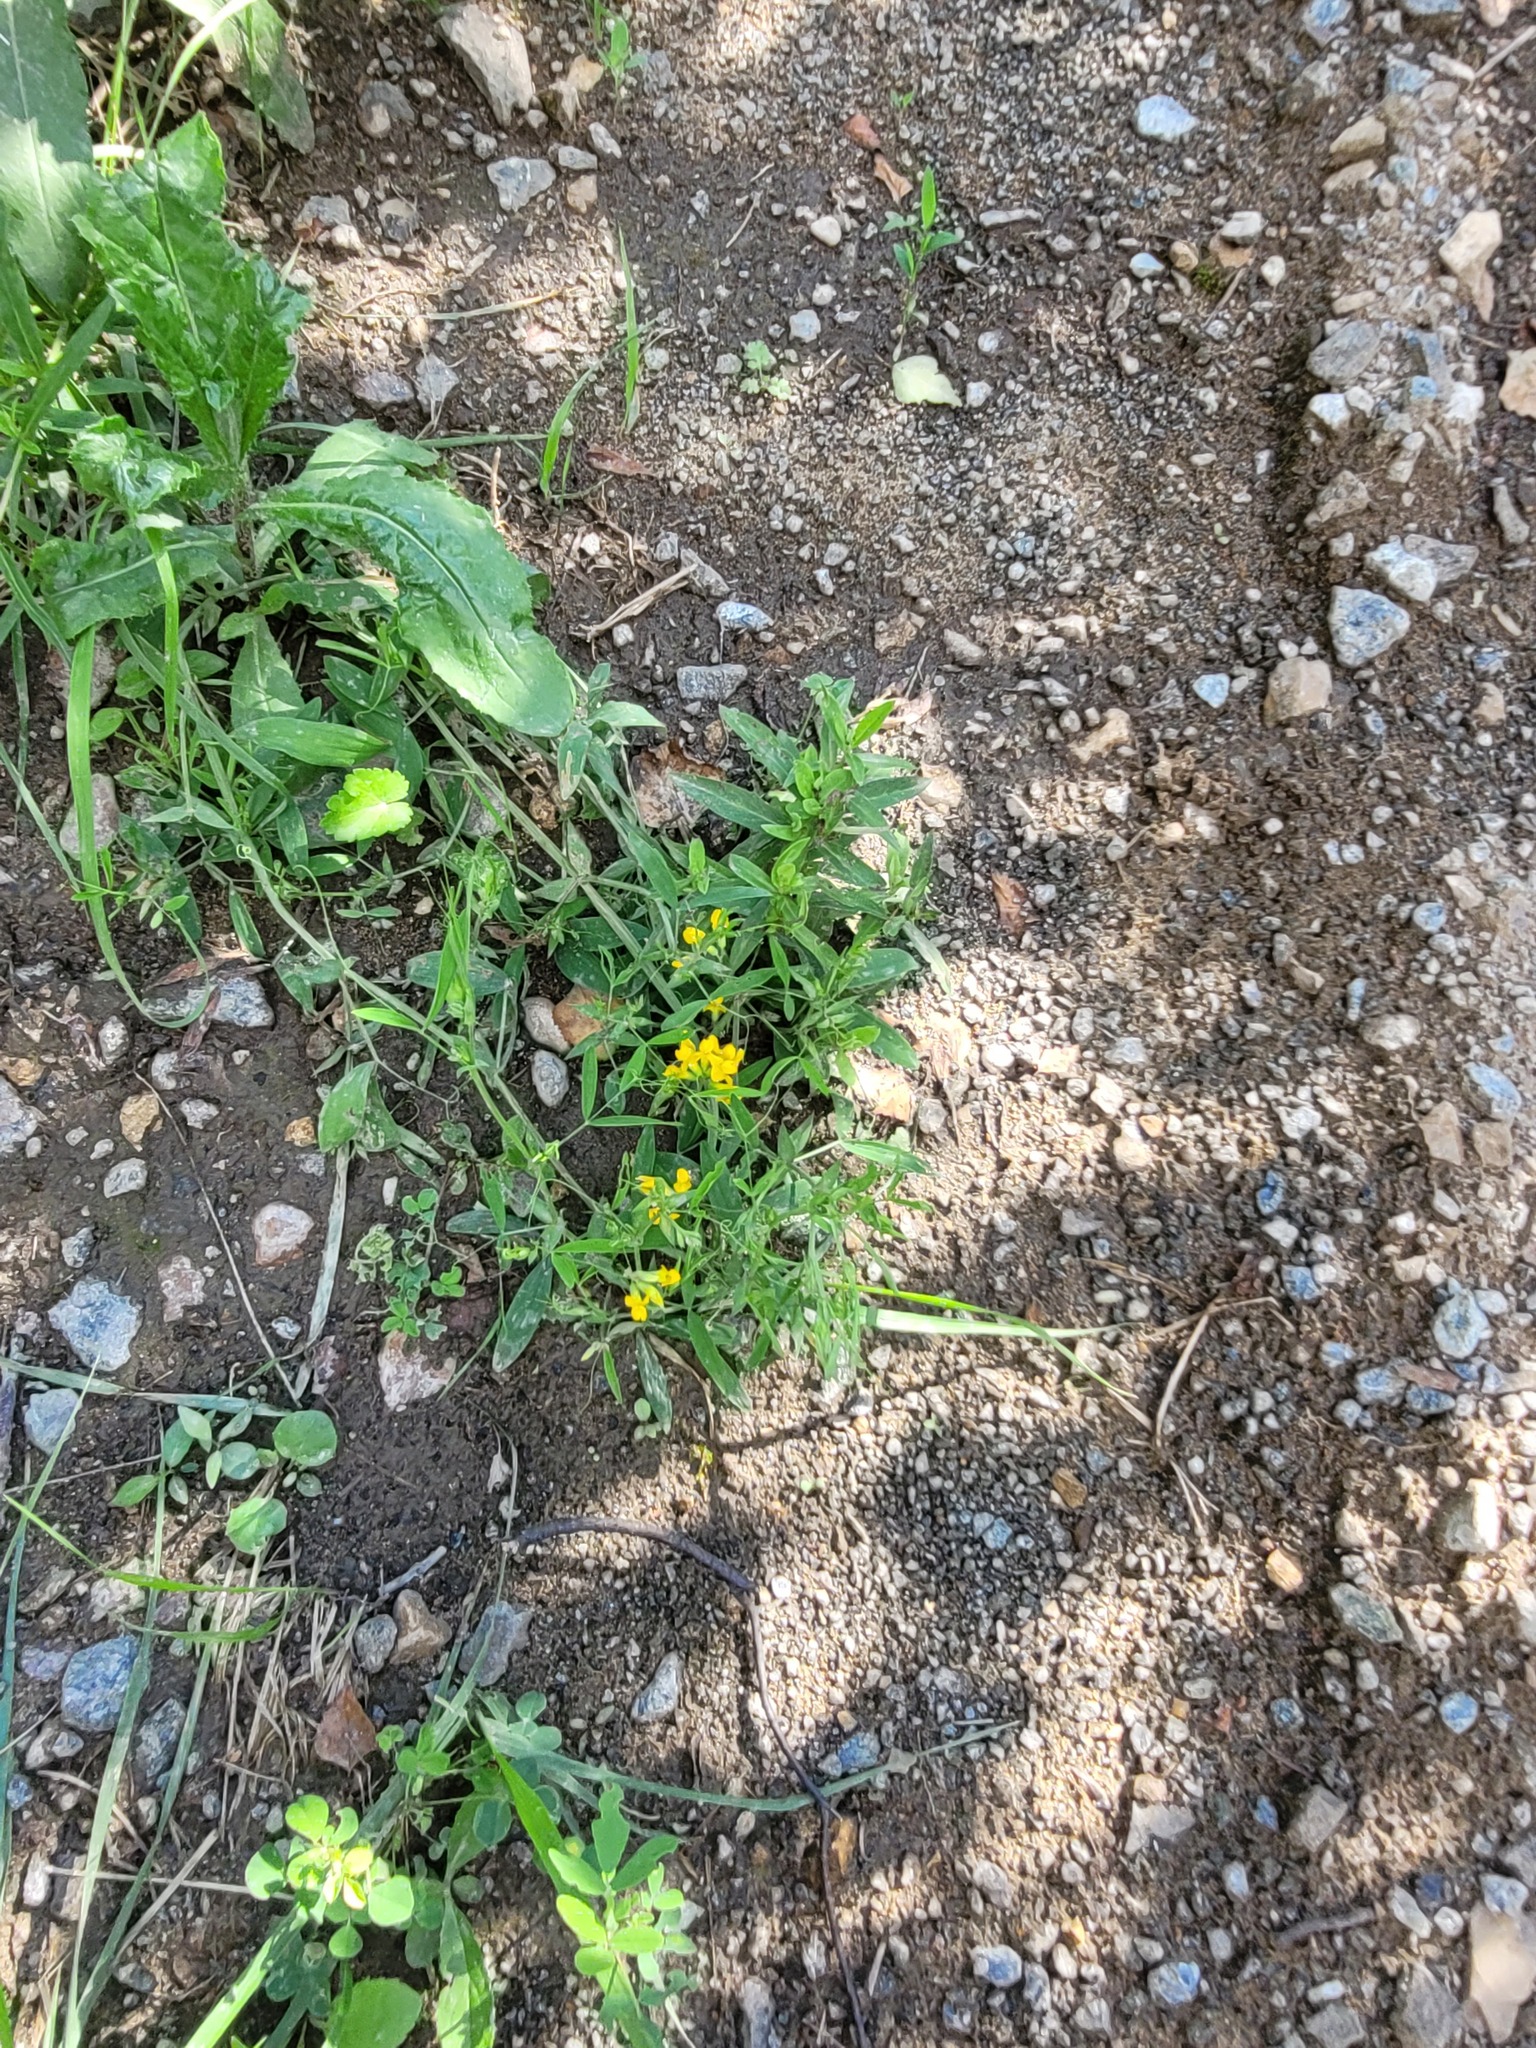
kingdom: Plantae
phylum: Tracheophyta
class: Magnoliopsida
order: Fabales
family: Fabaceae
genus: Lathyrus
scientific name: Lathyrus pratensis
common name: Meadow vetchling
